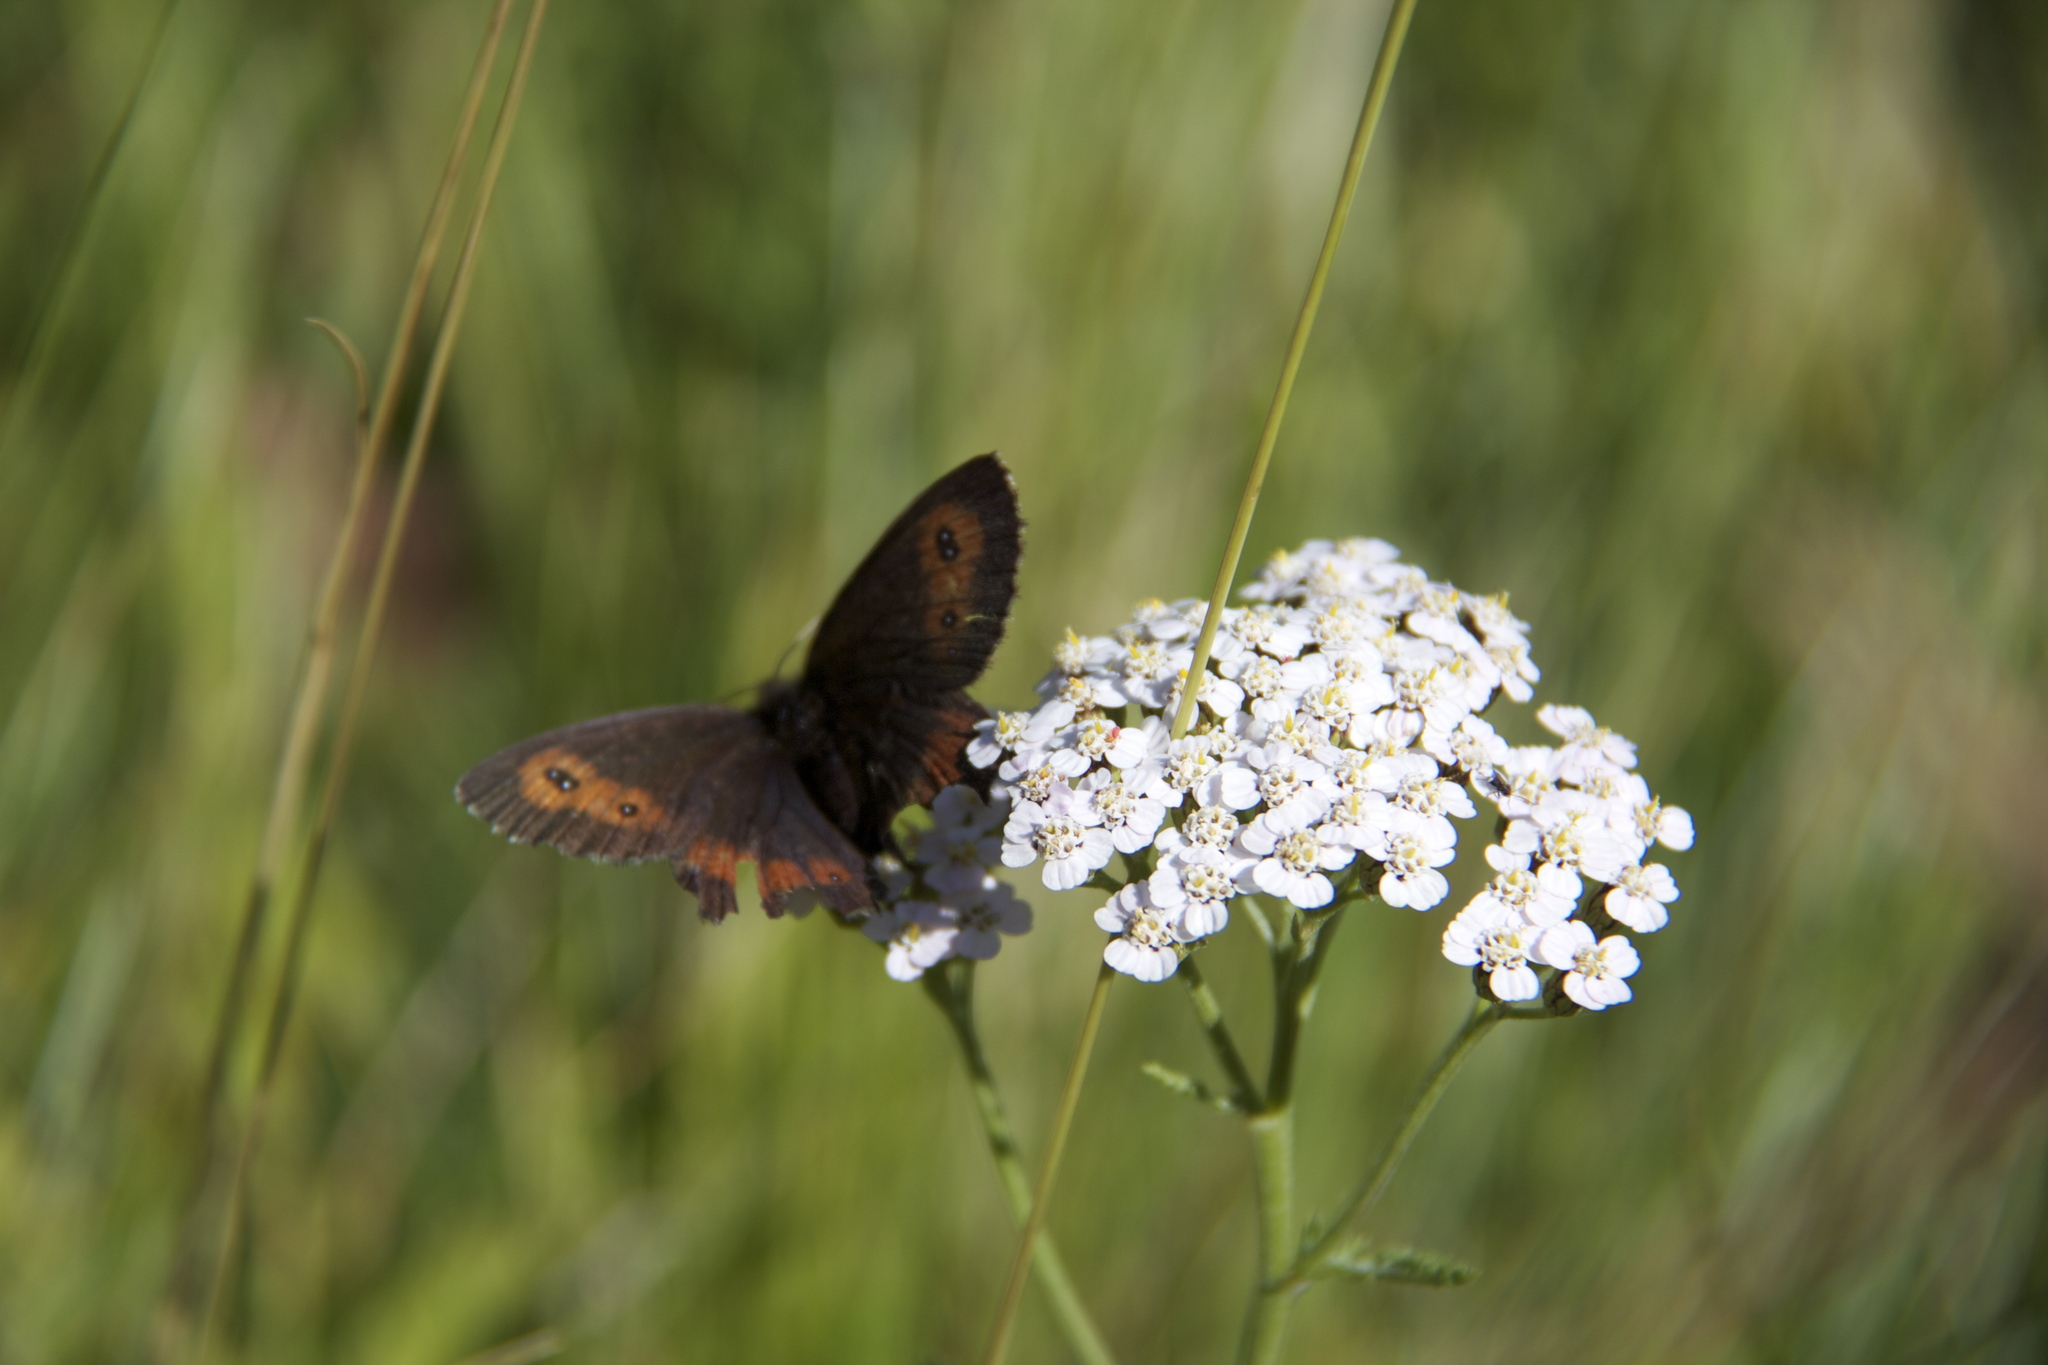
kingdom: Animalia
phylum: Arthropoda
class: Insecta
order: Lepidoptera
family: Nymphalidae
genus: Erebia
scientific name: Erebia euryale
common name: Large ringlet
